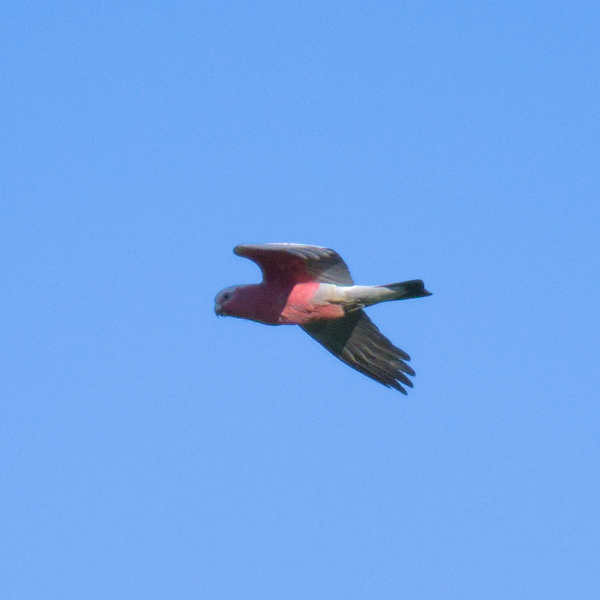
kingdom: Animalia
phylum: Chordata
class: Aves
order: Psittaciformes
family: Psittacidae
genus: Eolophus
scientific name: Eolophus roseicapilla
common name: Galah
